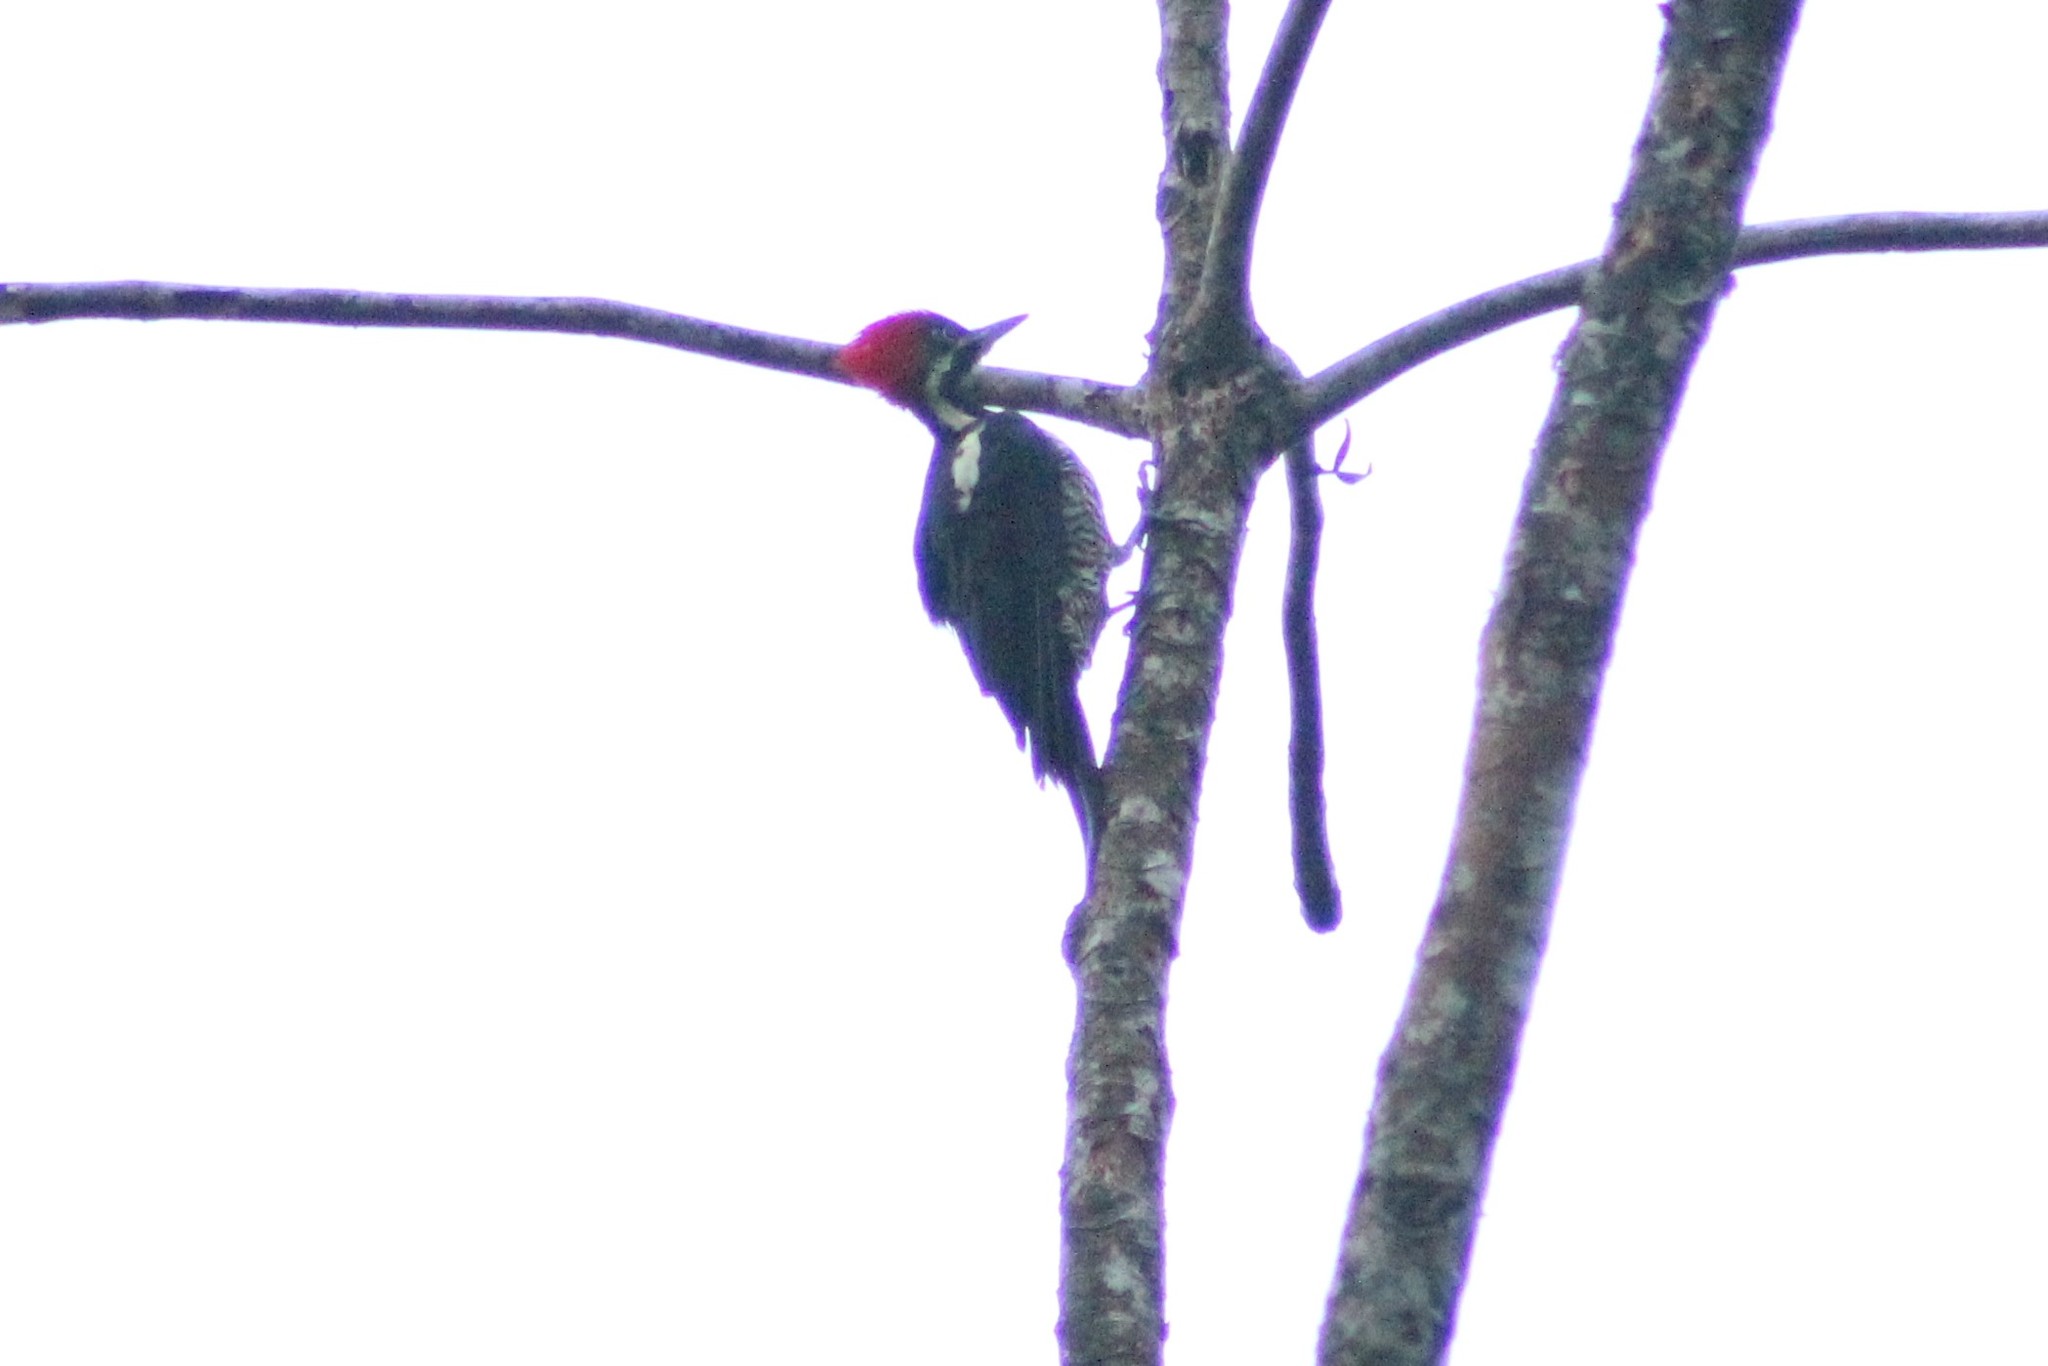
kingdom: Animalia
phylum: Chordata
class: Aves
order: Piciformes
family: Picidae
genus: Dryocopus
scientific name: Dryocopus lineatus
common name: Lineated woodpecker
